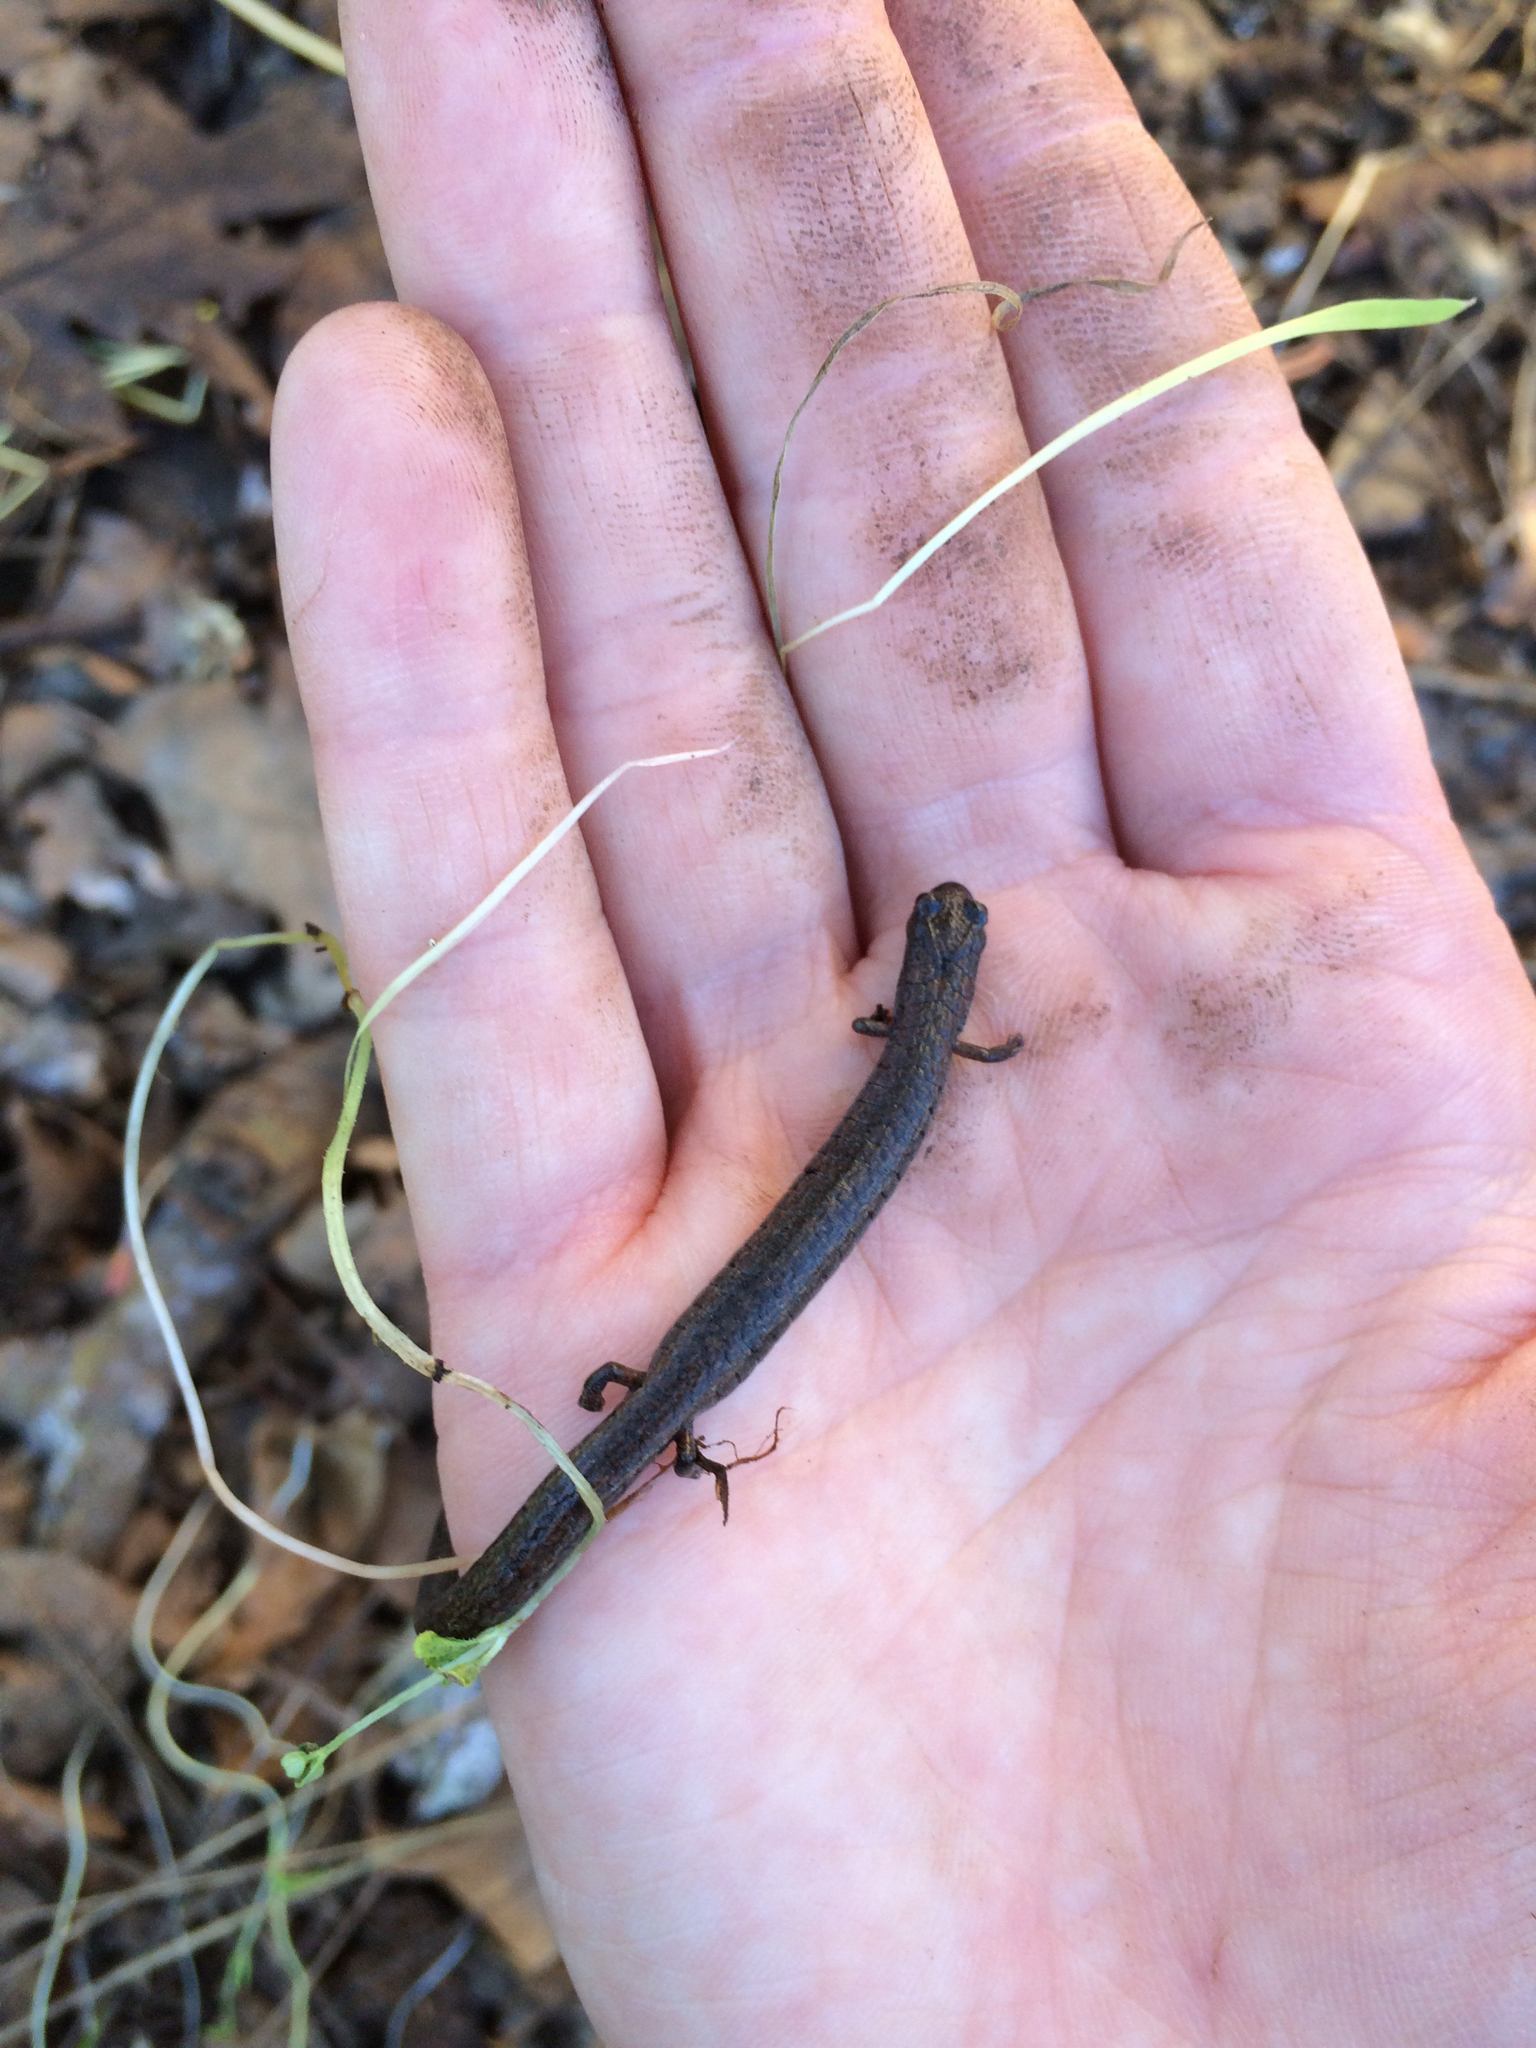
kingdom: Animalia
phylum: Chordata
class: Amphibia
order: Caudata
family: Plethodontidae
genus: Batrachoseps
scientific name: Batrachoseps attenuatus
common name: California slender salamander
